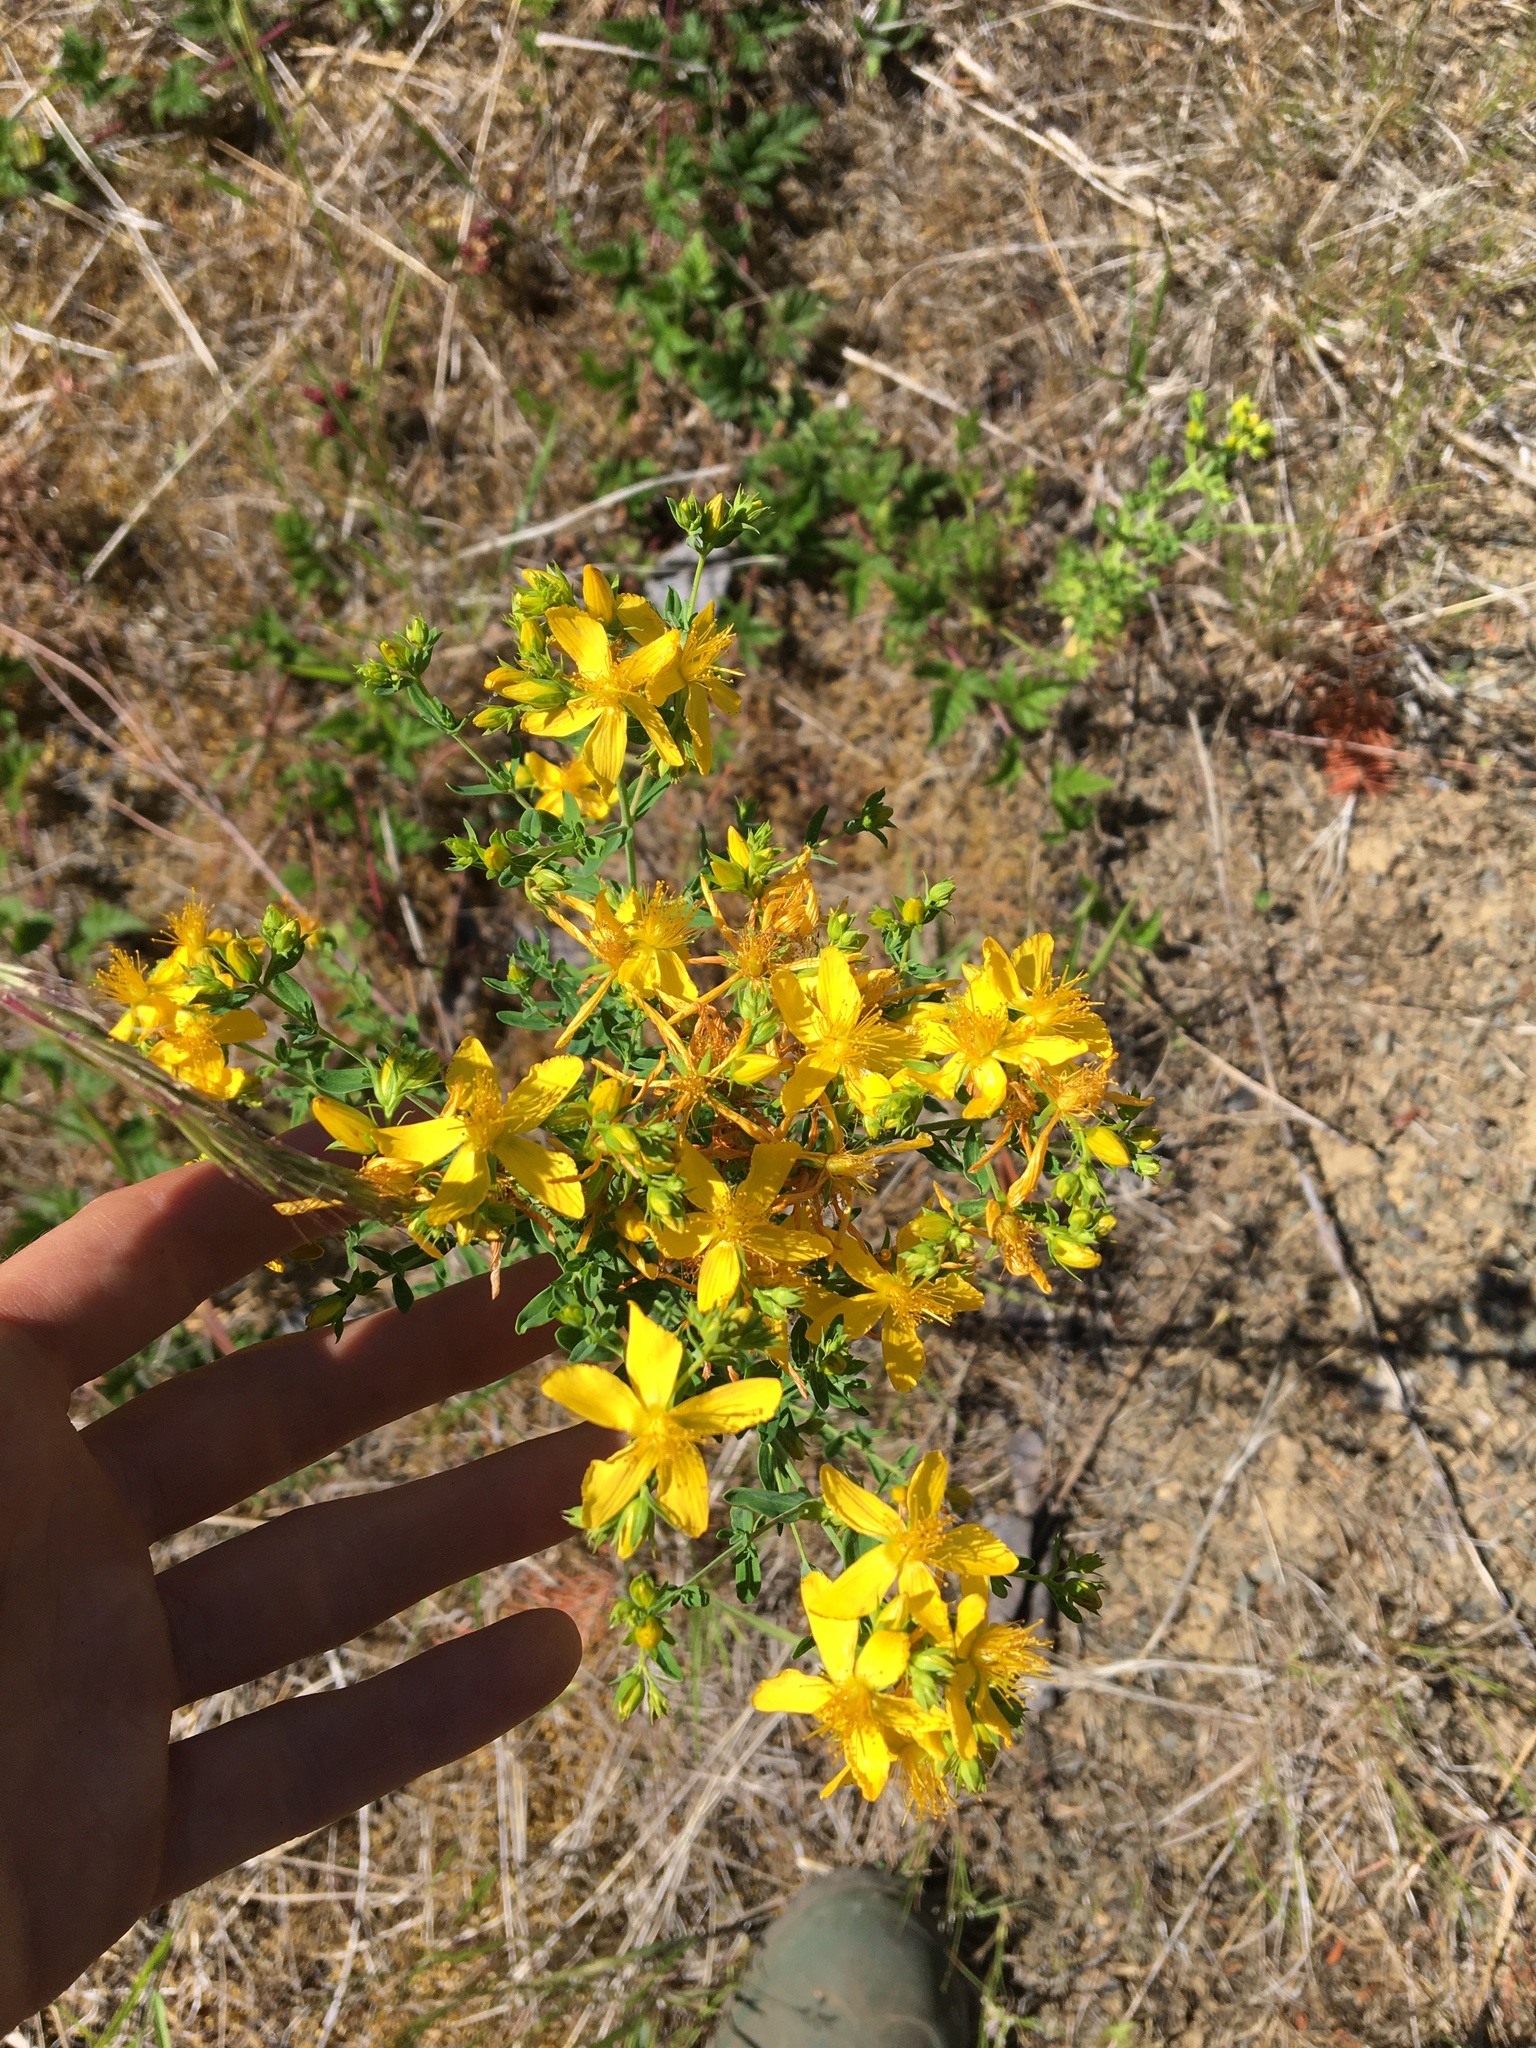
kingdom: Plantae
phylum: Tracheophyta
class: Magnoliopsida
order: Malpighiales
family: Hypericaceae
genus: Hypericum
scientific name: Hypericum perforatum
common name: Common st. johnswort
